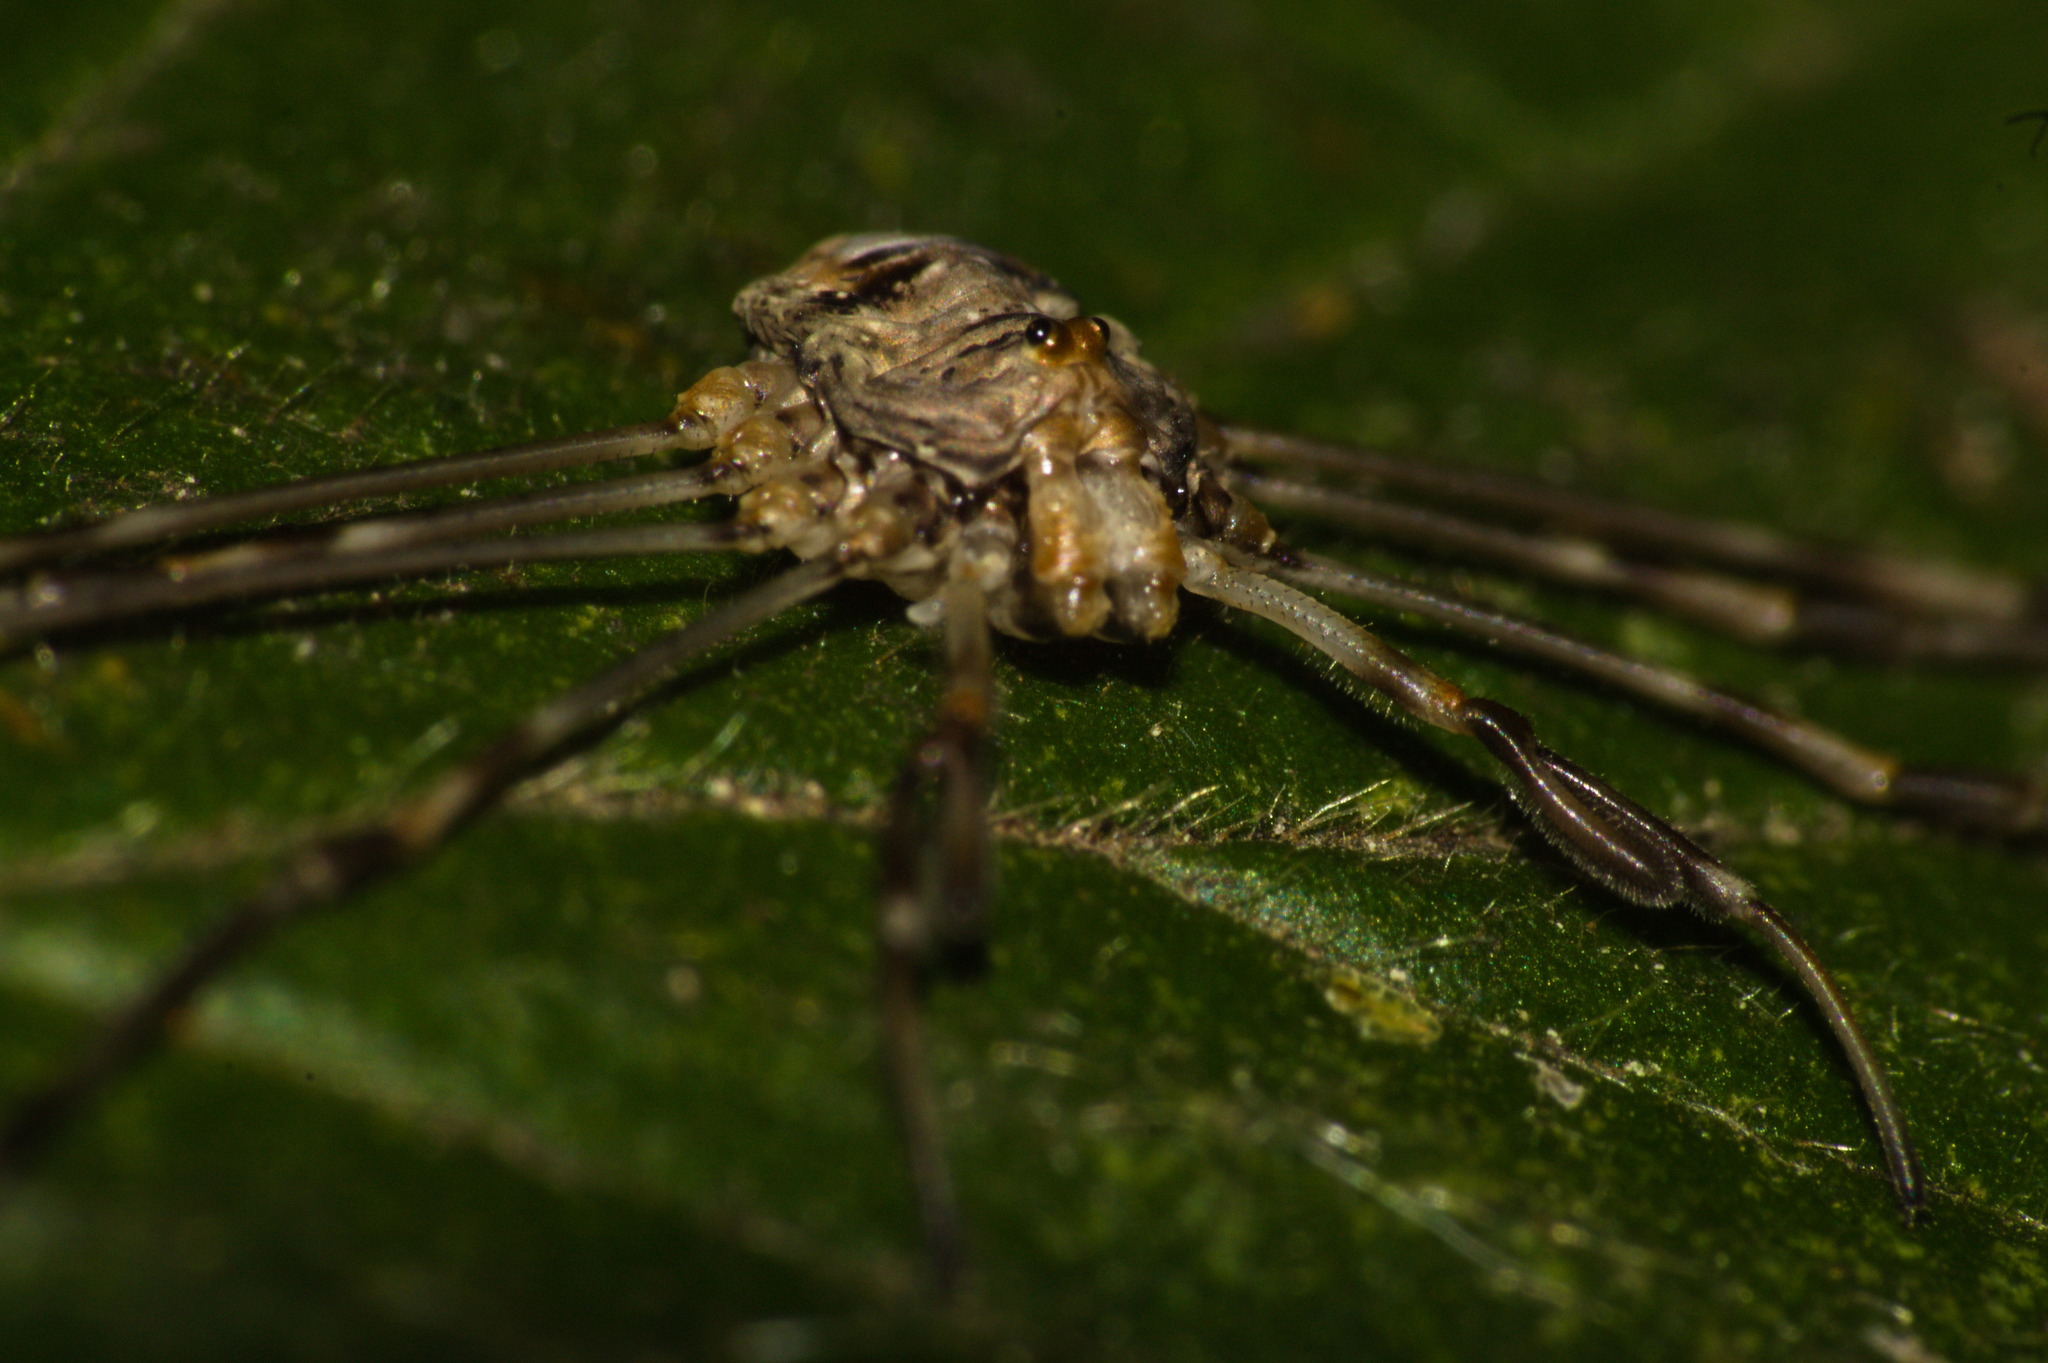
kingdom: Animalia
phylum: Arthropoda
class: Arachnida
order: Opiliones
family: Phalangiidae
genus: Dicranopalpus
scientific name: Dicranopalpus ramosus
